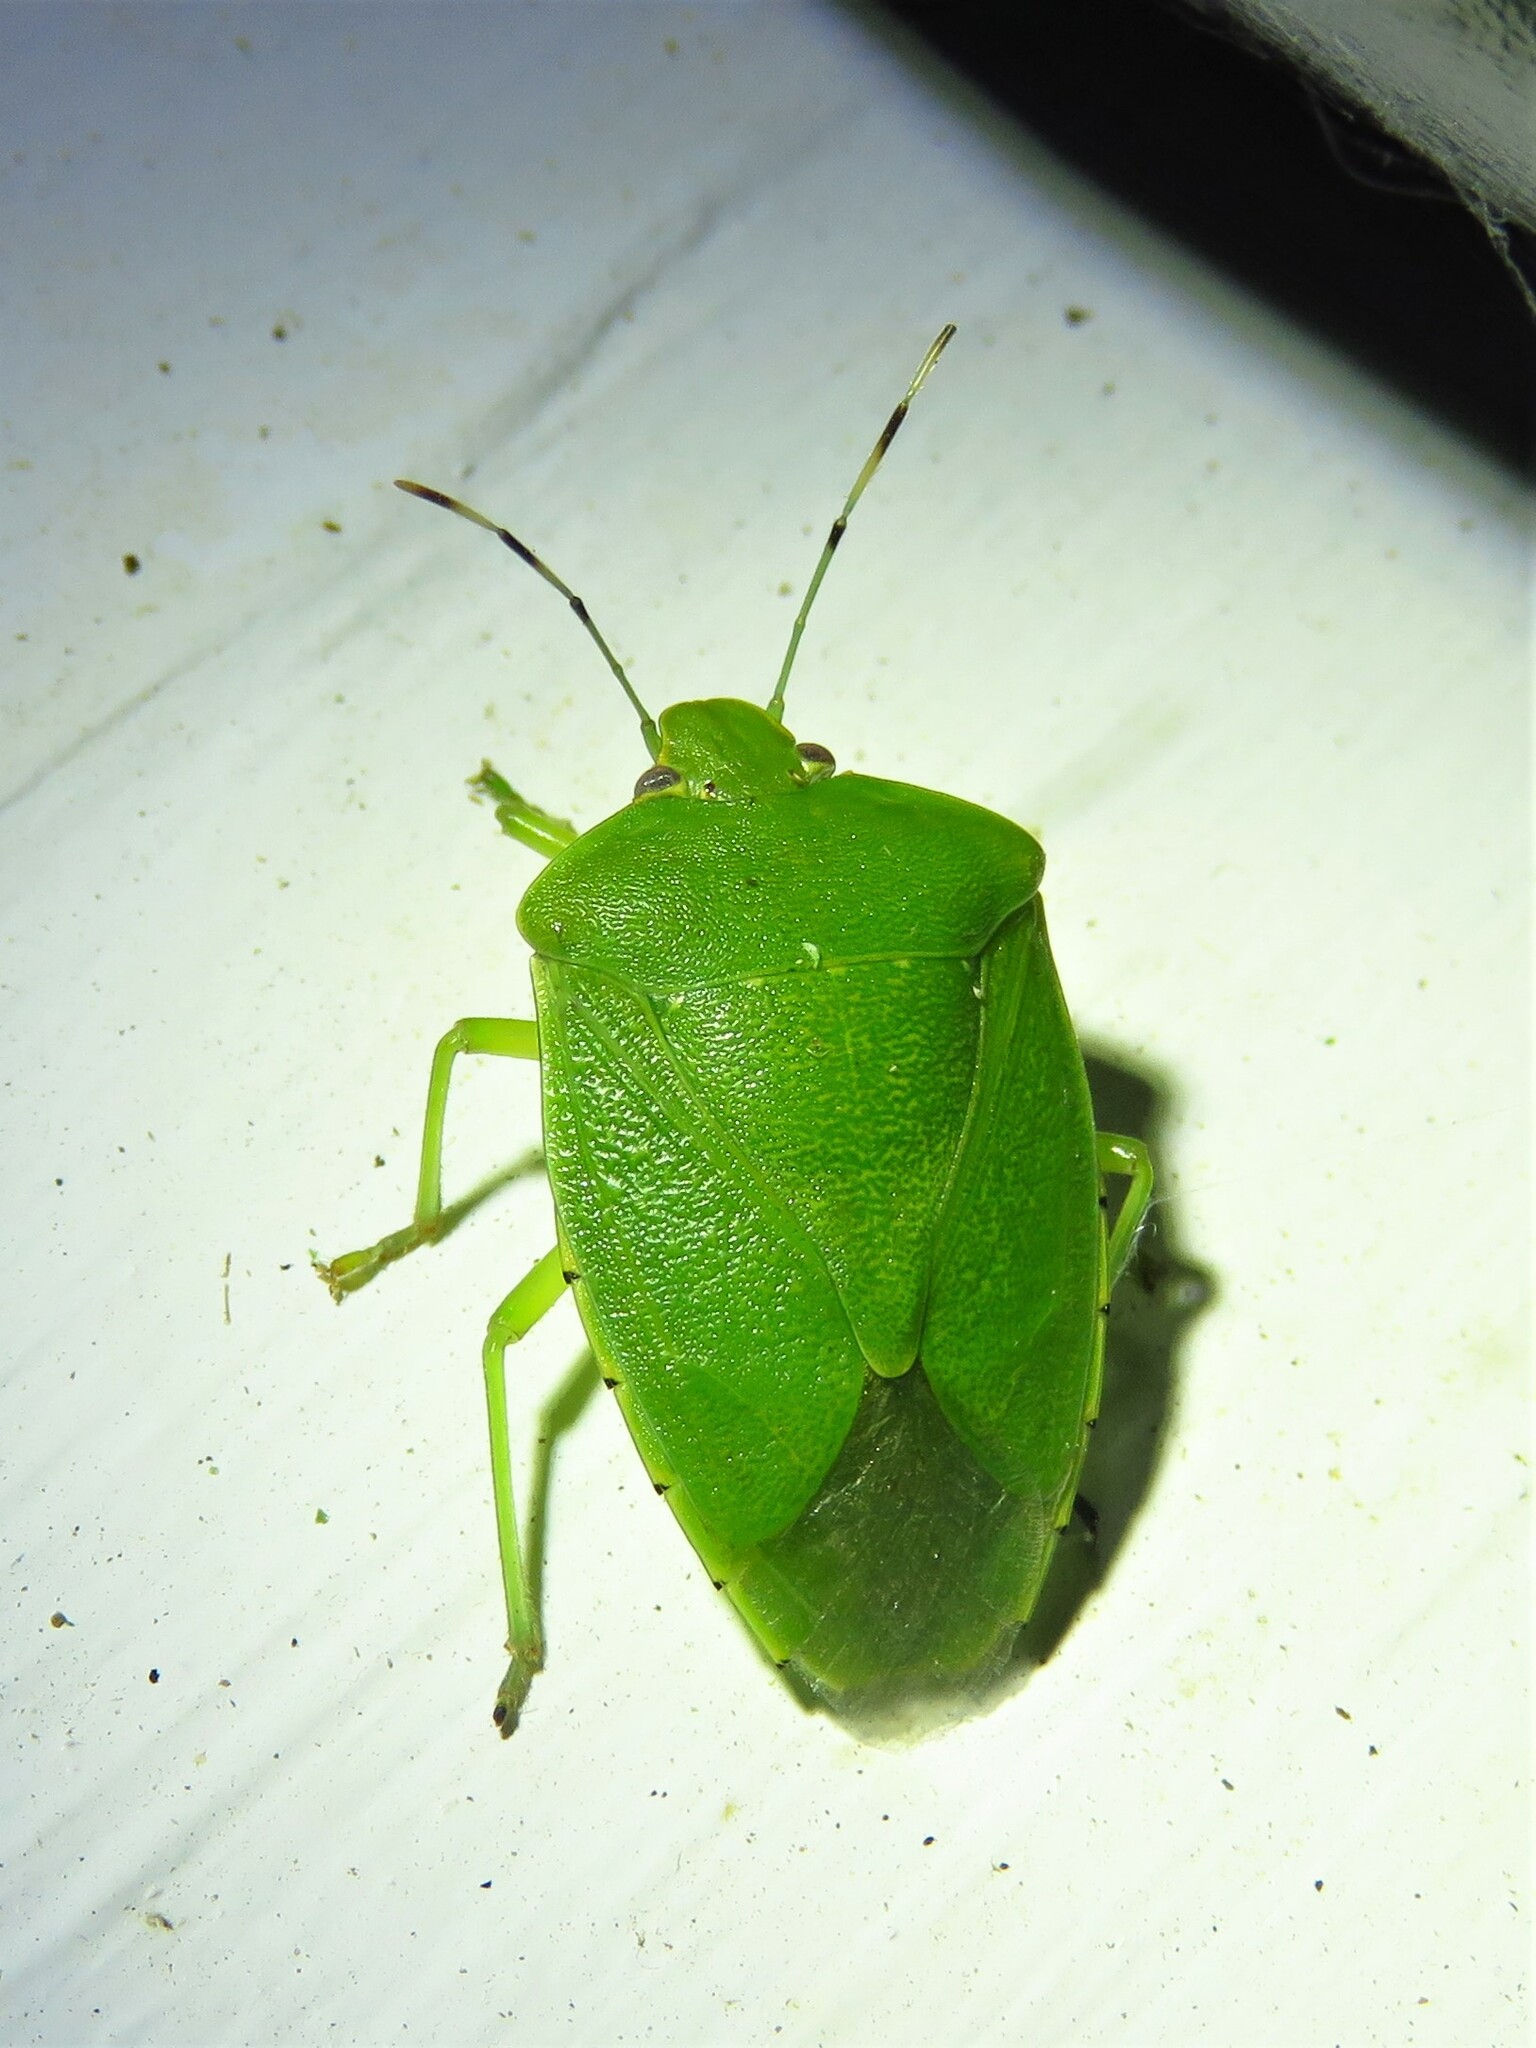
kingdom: Animalia
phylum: Arthropoda
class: Insecta
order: Hemiptera
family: Pentatomidae
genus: Chinavia
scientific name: Chinavia hilaris
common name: Green stink bug
